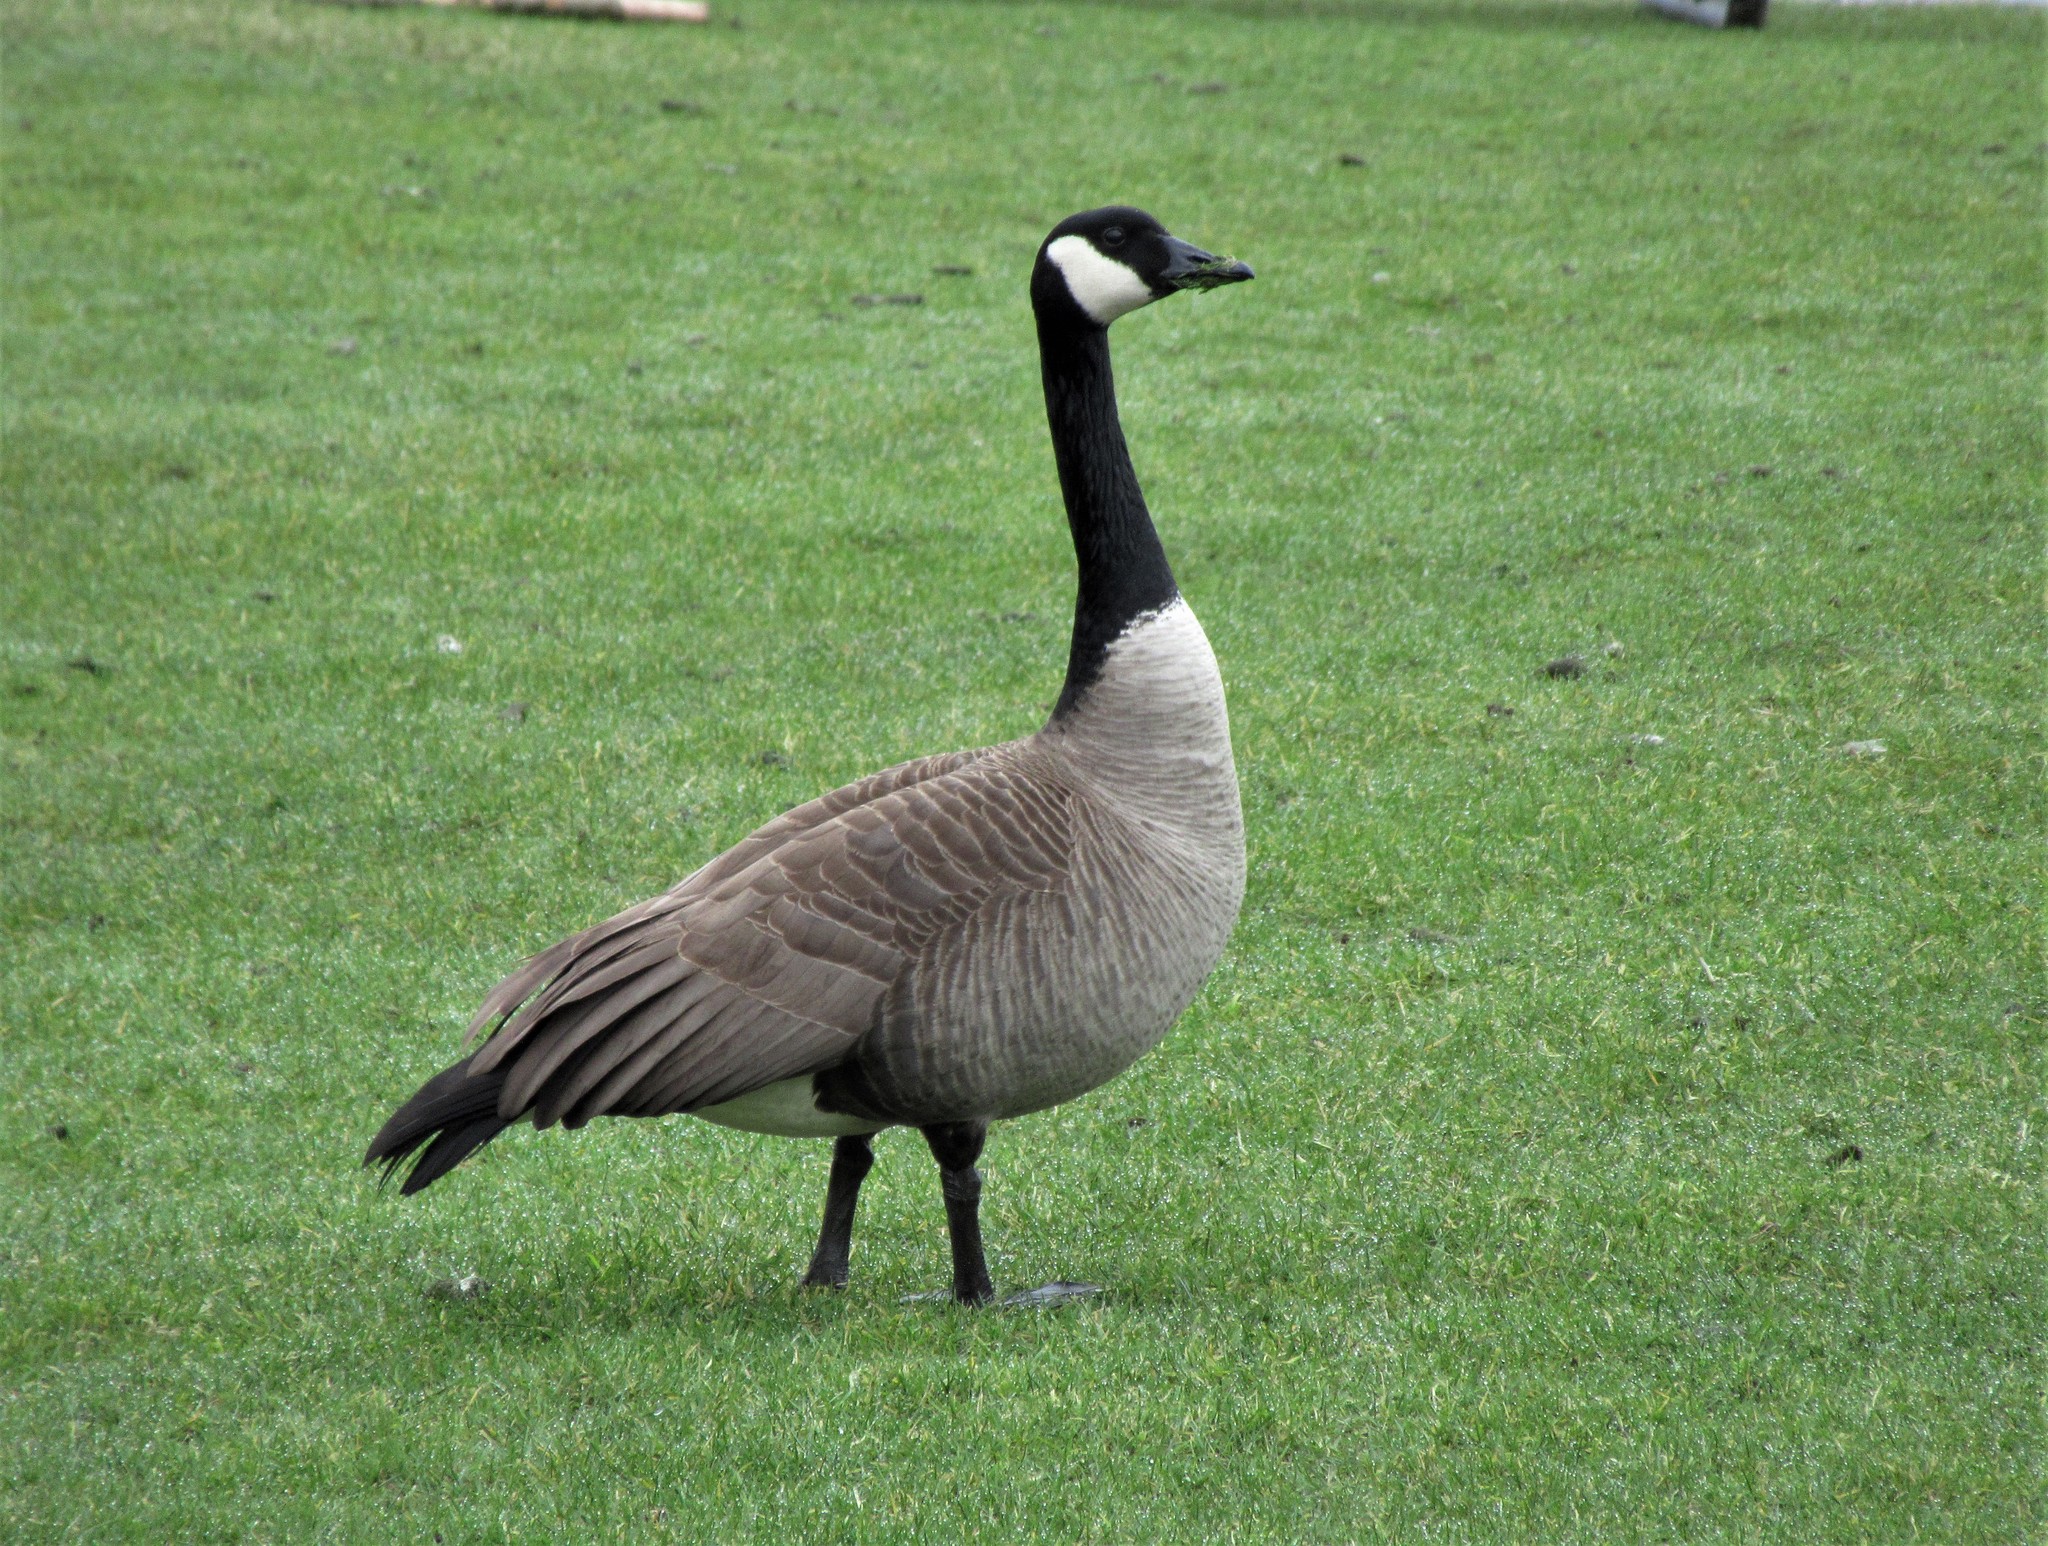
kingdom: Animalia
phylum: Chordata
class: Aves
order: Anseriformes
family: Anatidae
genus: Branta
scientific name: Branta canadensis
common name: Canada goose
